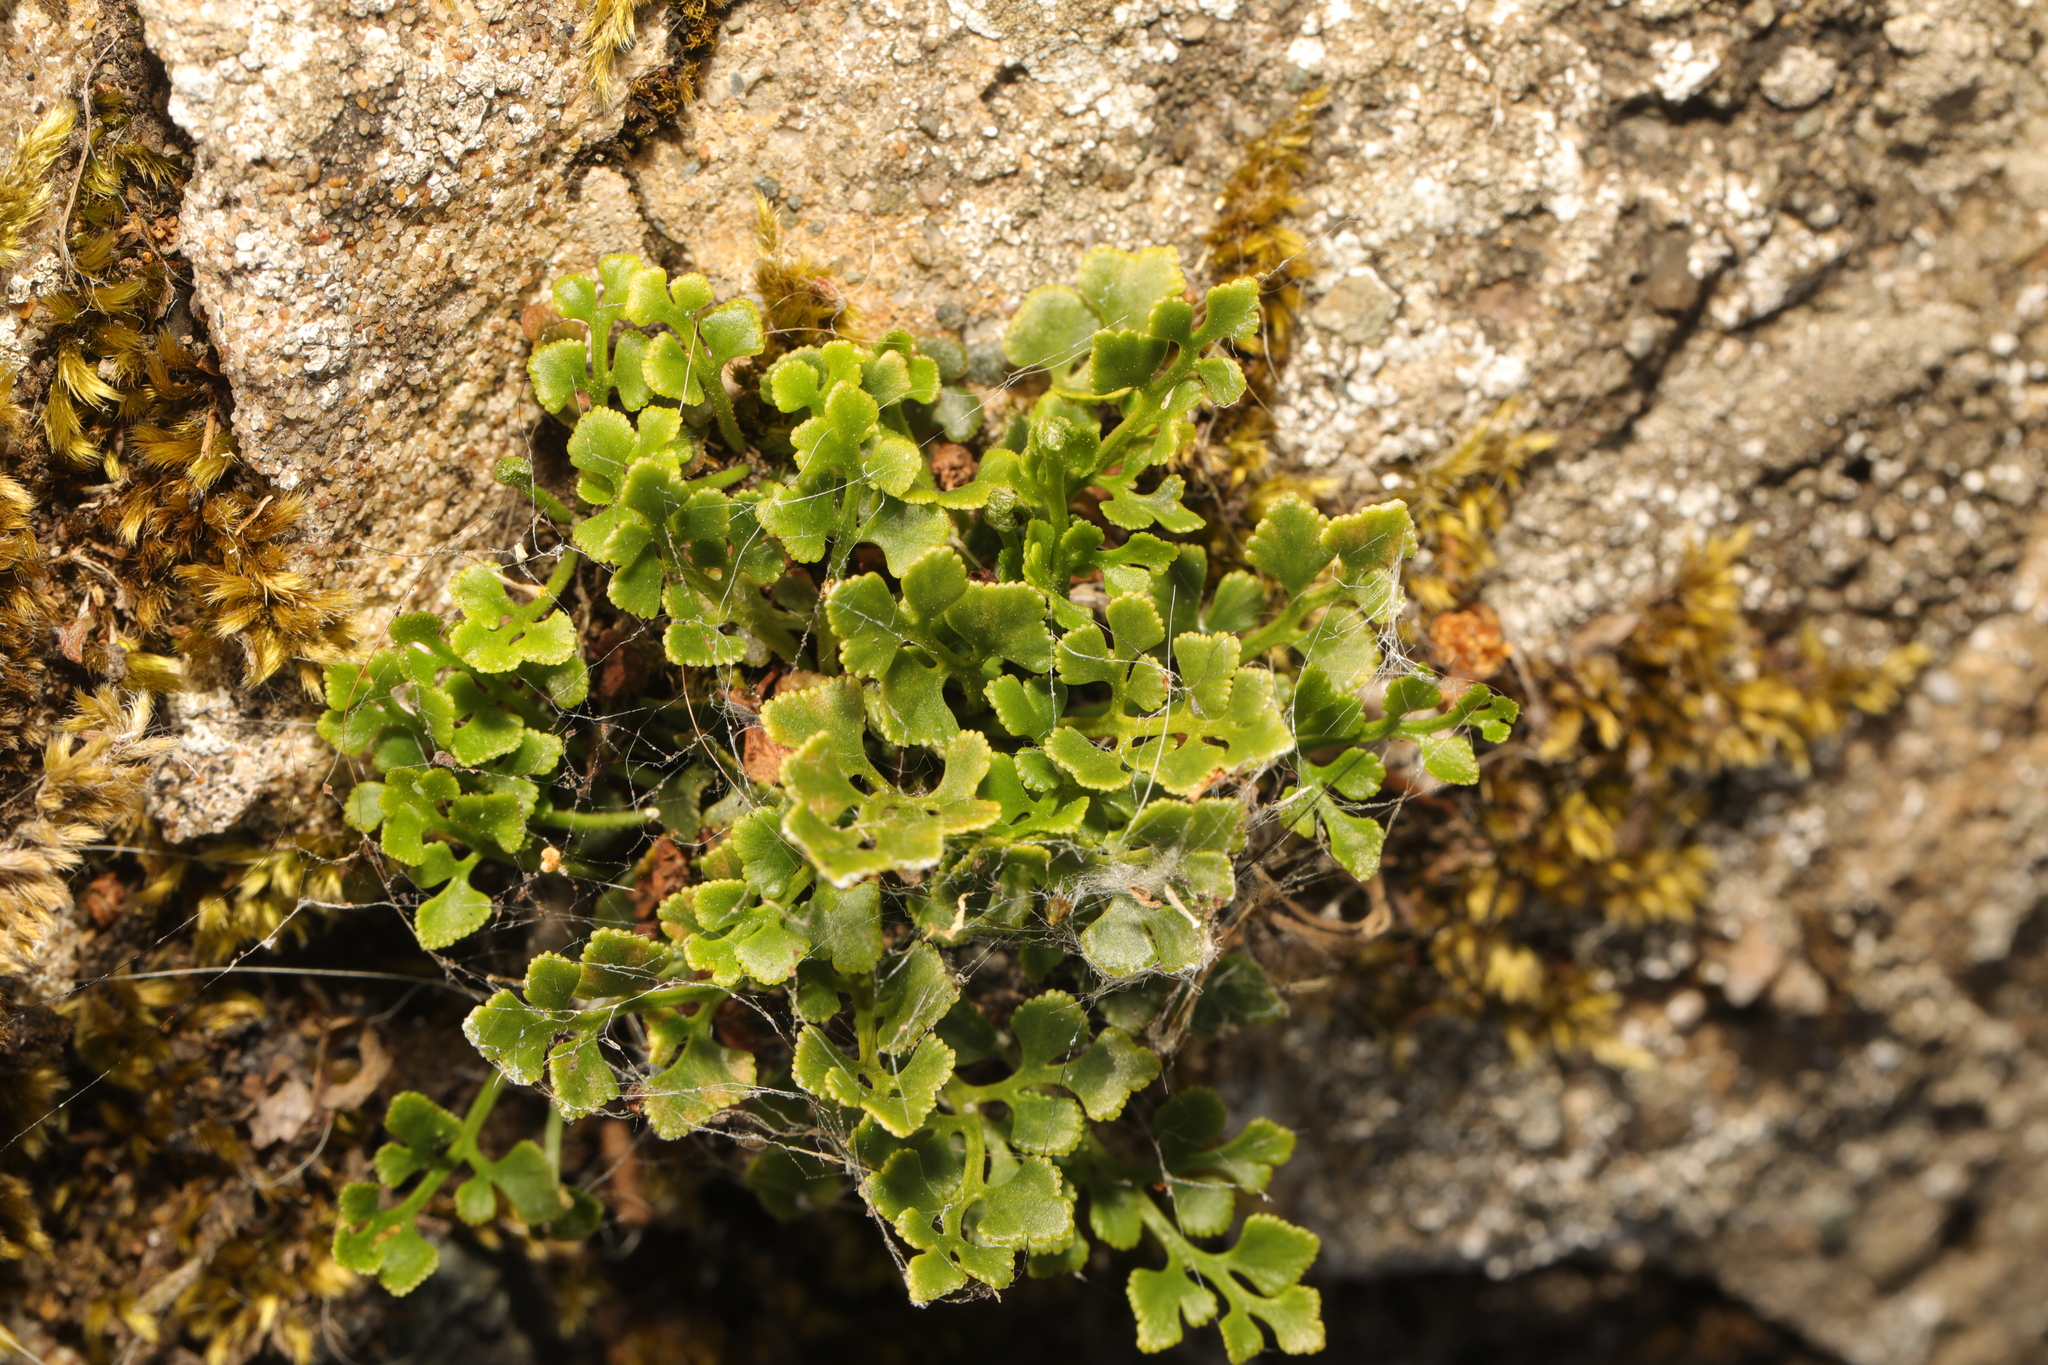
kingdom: Plantae
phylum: Tracheophyta
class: Polypodiopsida
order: Polypodiales
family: Aspleniaceae
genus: Asplenium
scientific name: Asplenium ruta-muraria
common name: Wall-rue
